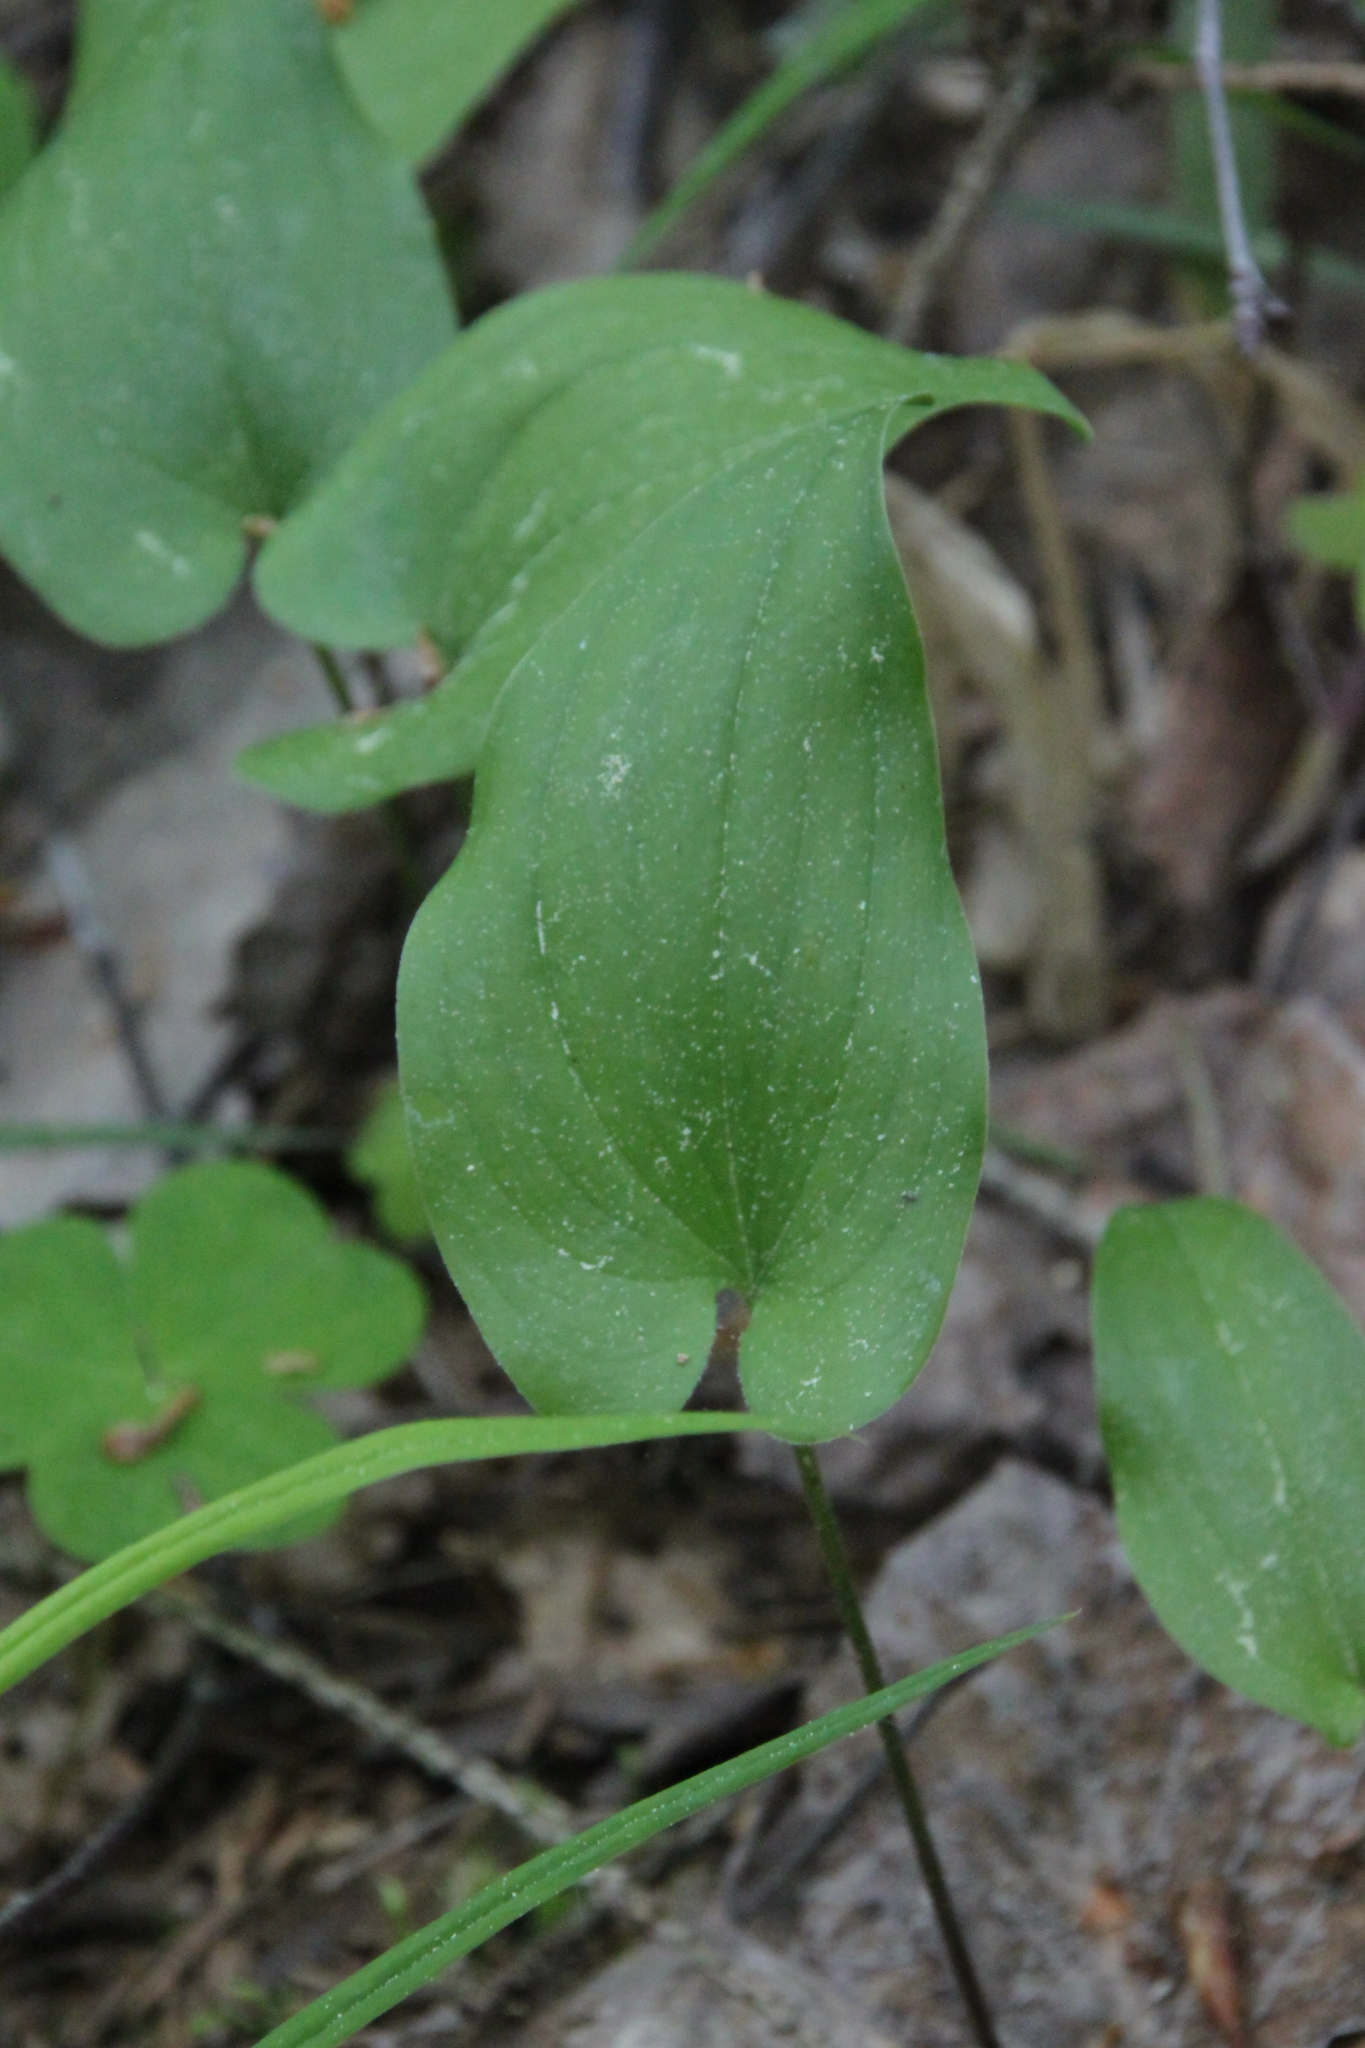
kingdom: Plantae
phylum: Tracheophyta
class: Liliopsida
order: Asparagales
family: Asparagaceae
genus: Maianthemum
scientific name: Maianthemum bifolium
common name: May lily
